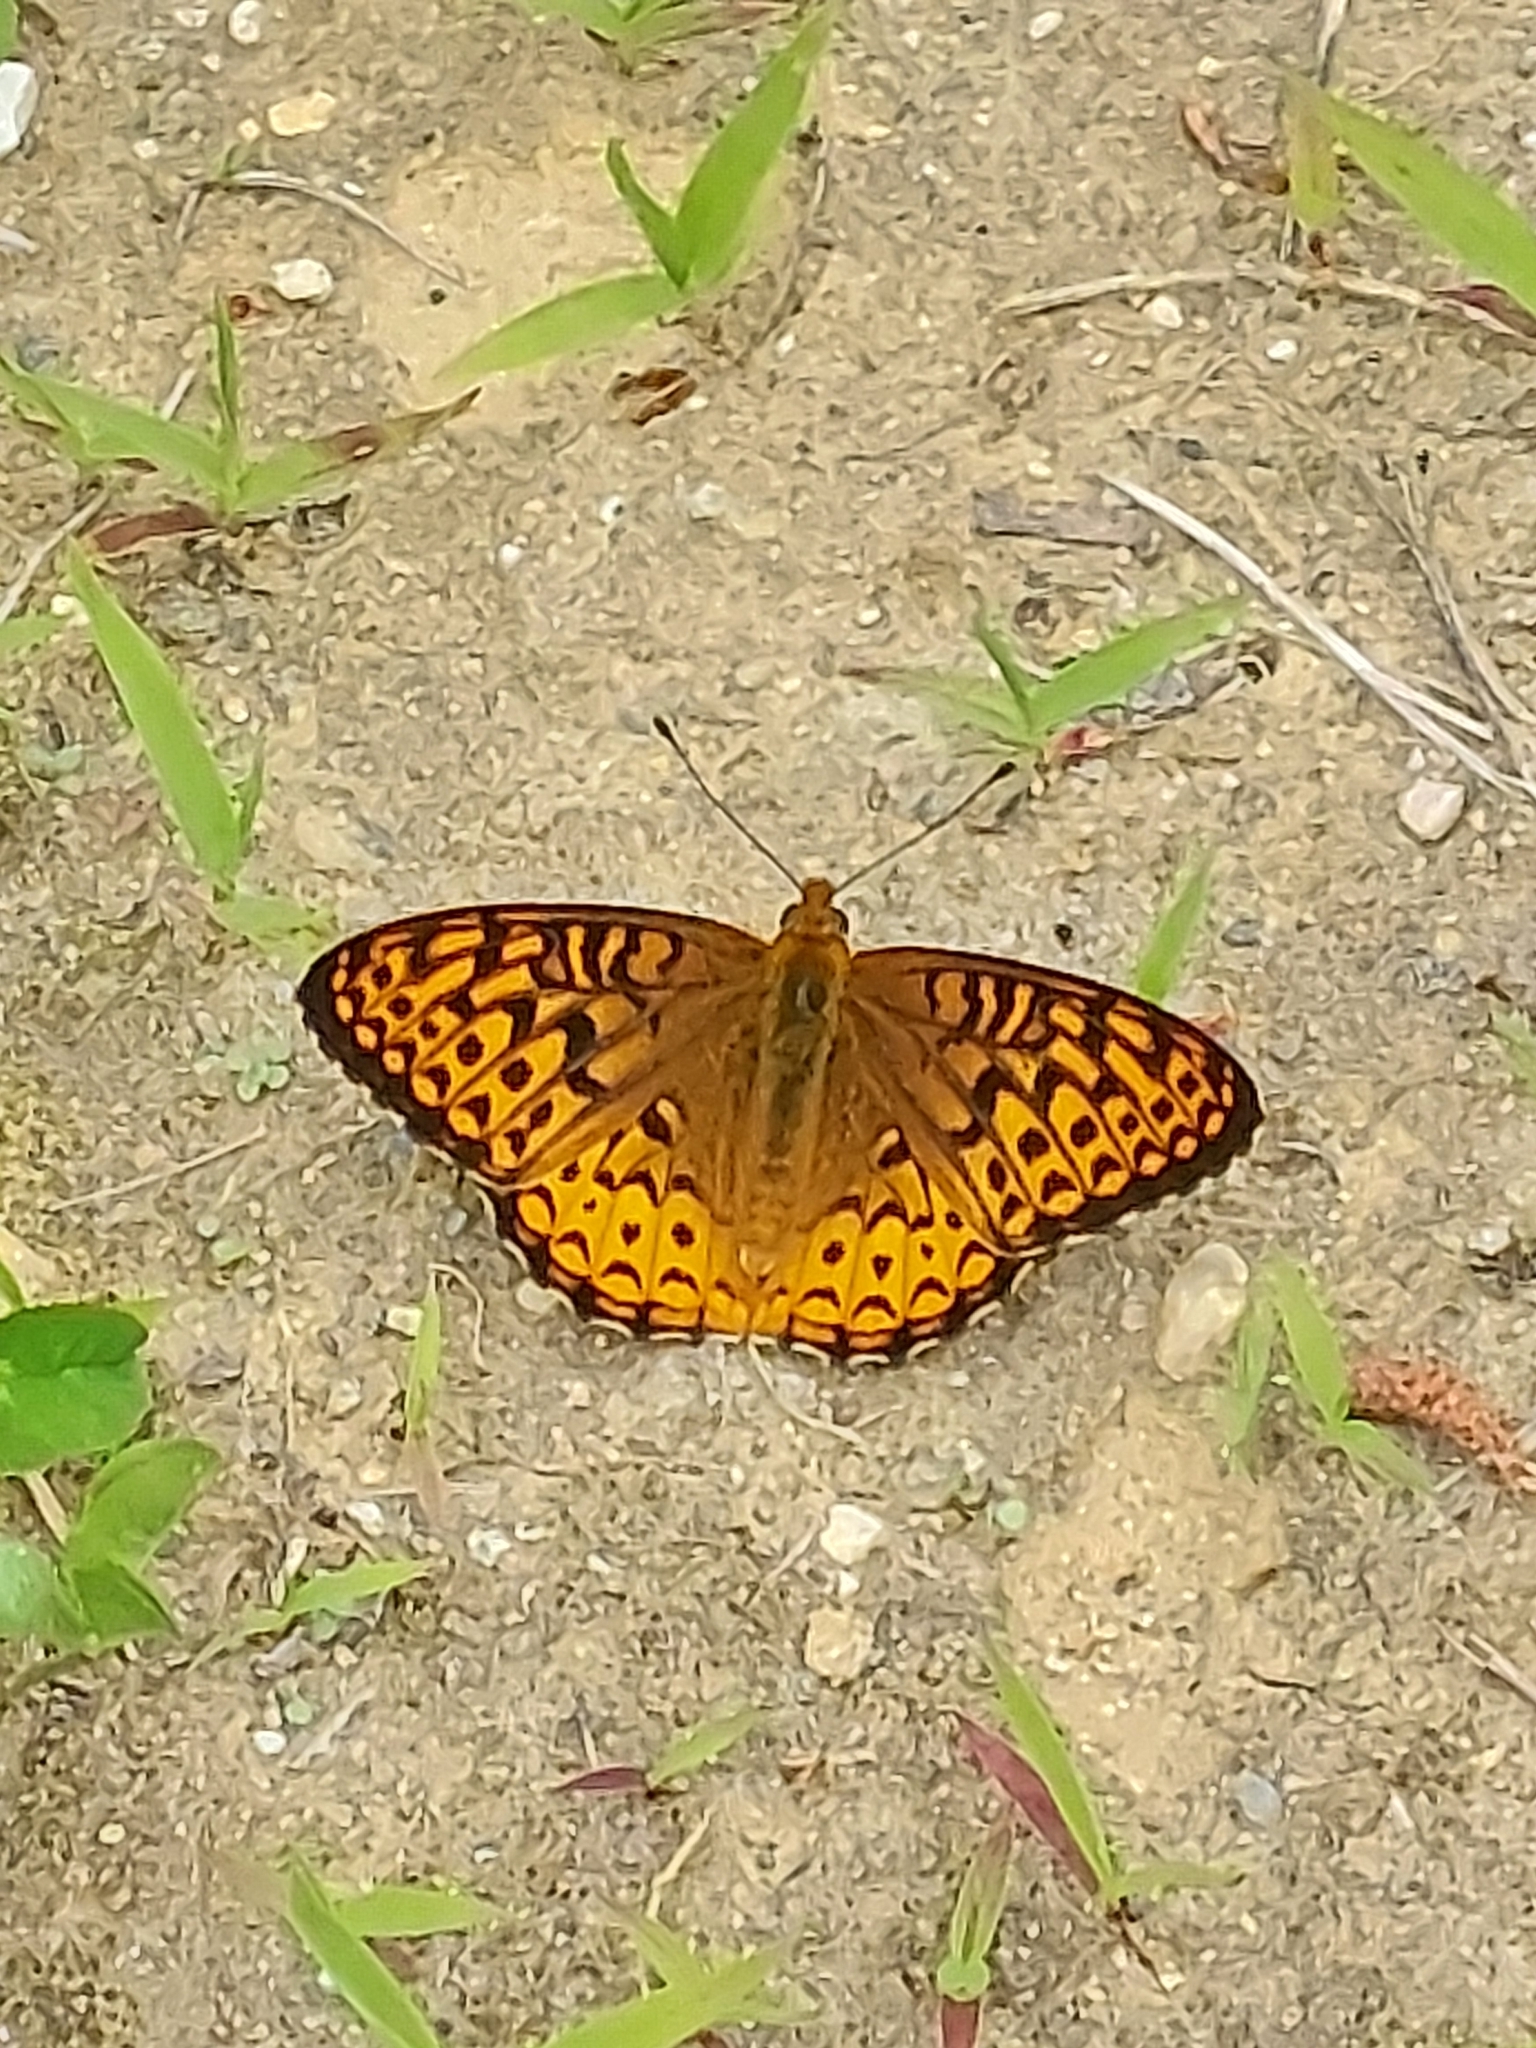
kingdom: Animalia
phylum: Arthropoda
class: Insecta
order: Lepidoptera
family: Nymphalidae
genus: Speyeria
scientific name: Speyeria atlantis
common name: Atlantis fritillary
